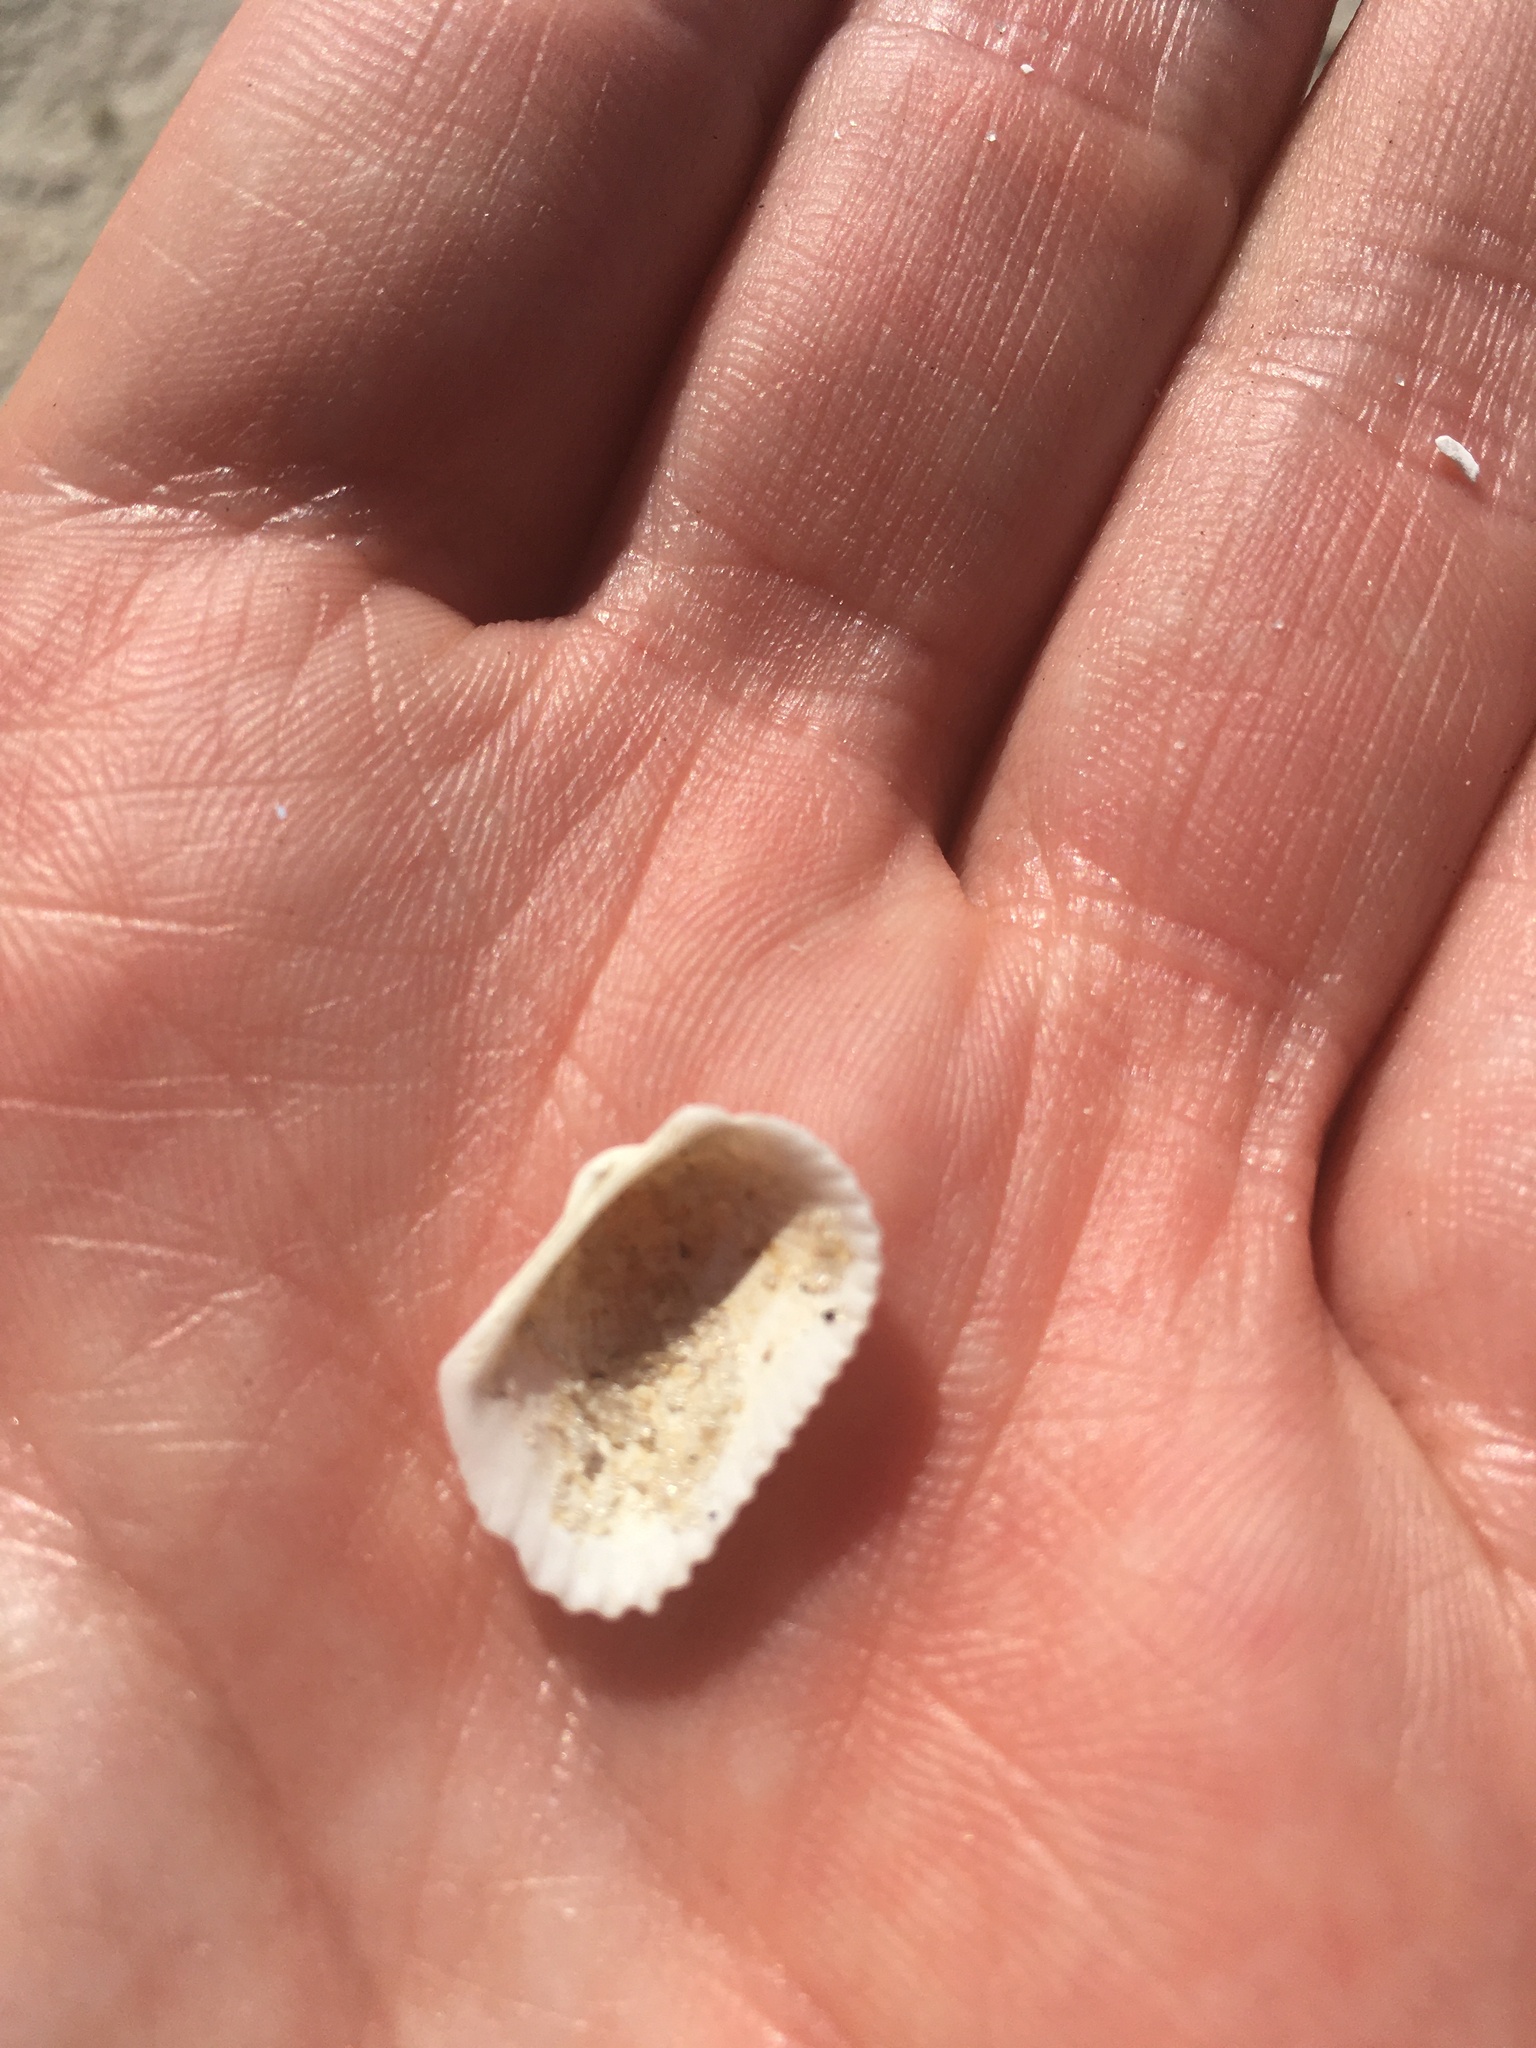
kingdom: Animalia
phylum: Mollusca
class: Bivalvia
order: Arcida
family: Arcidae
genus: Anadara
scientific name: Anadara transversa
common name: Transverse ark
